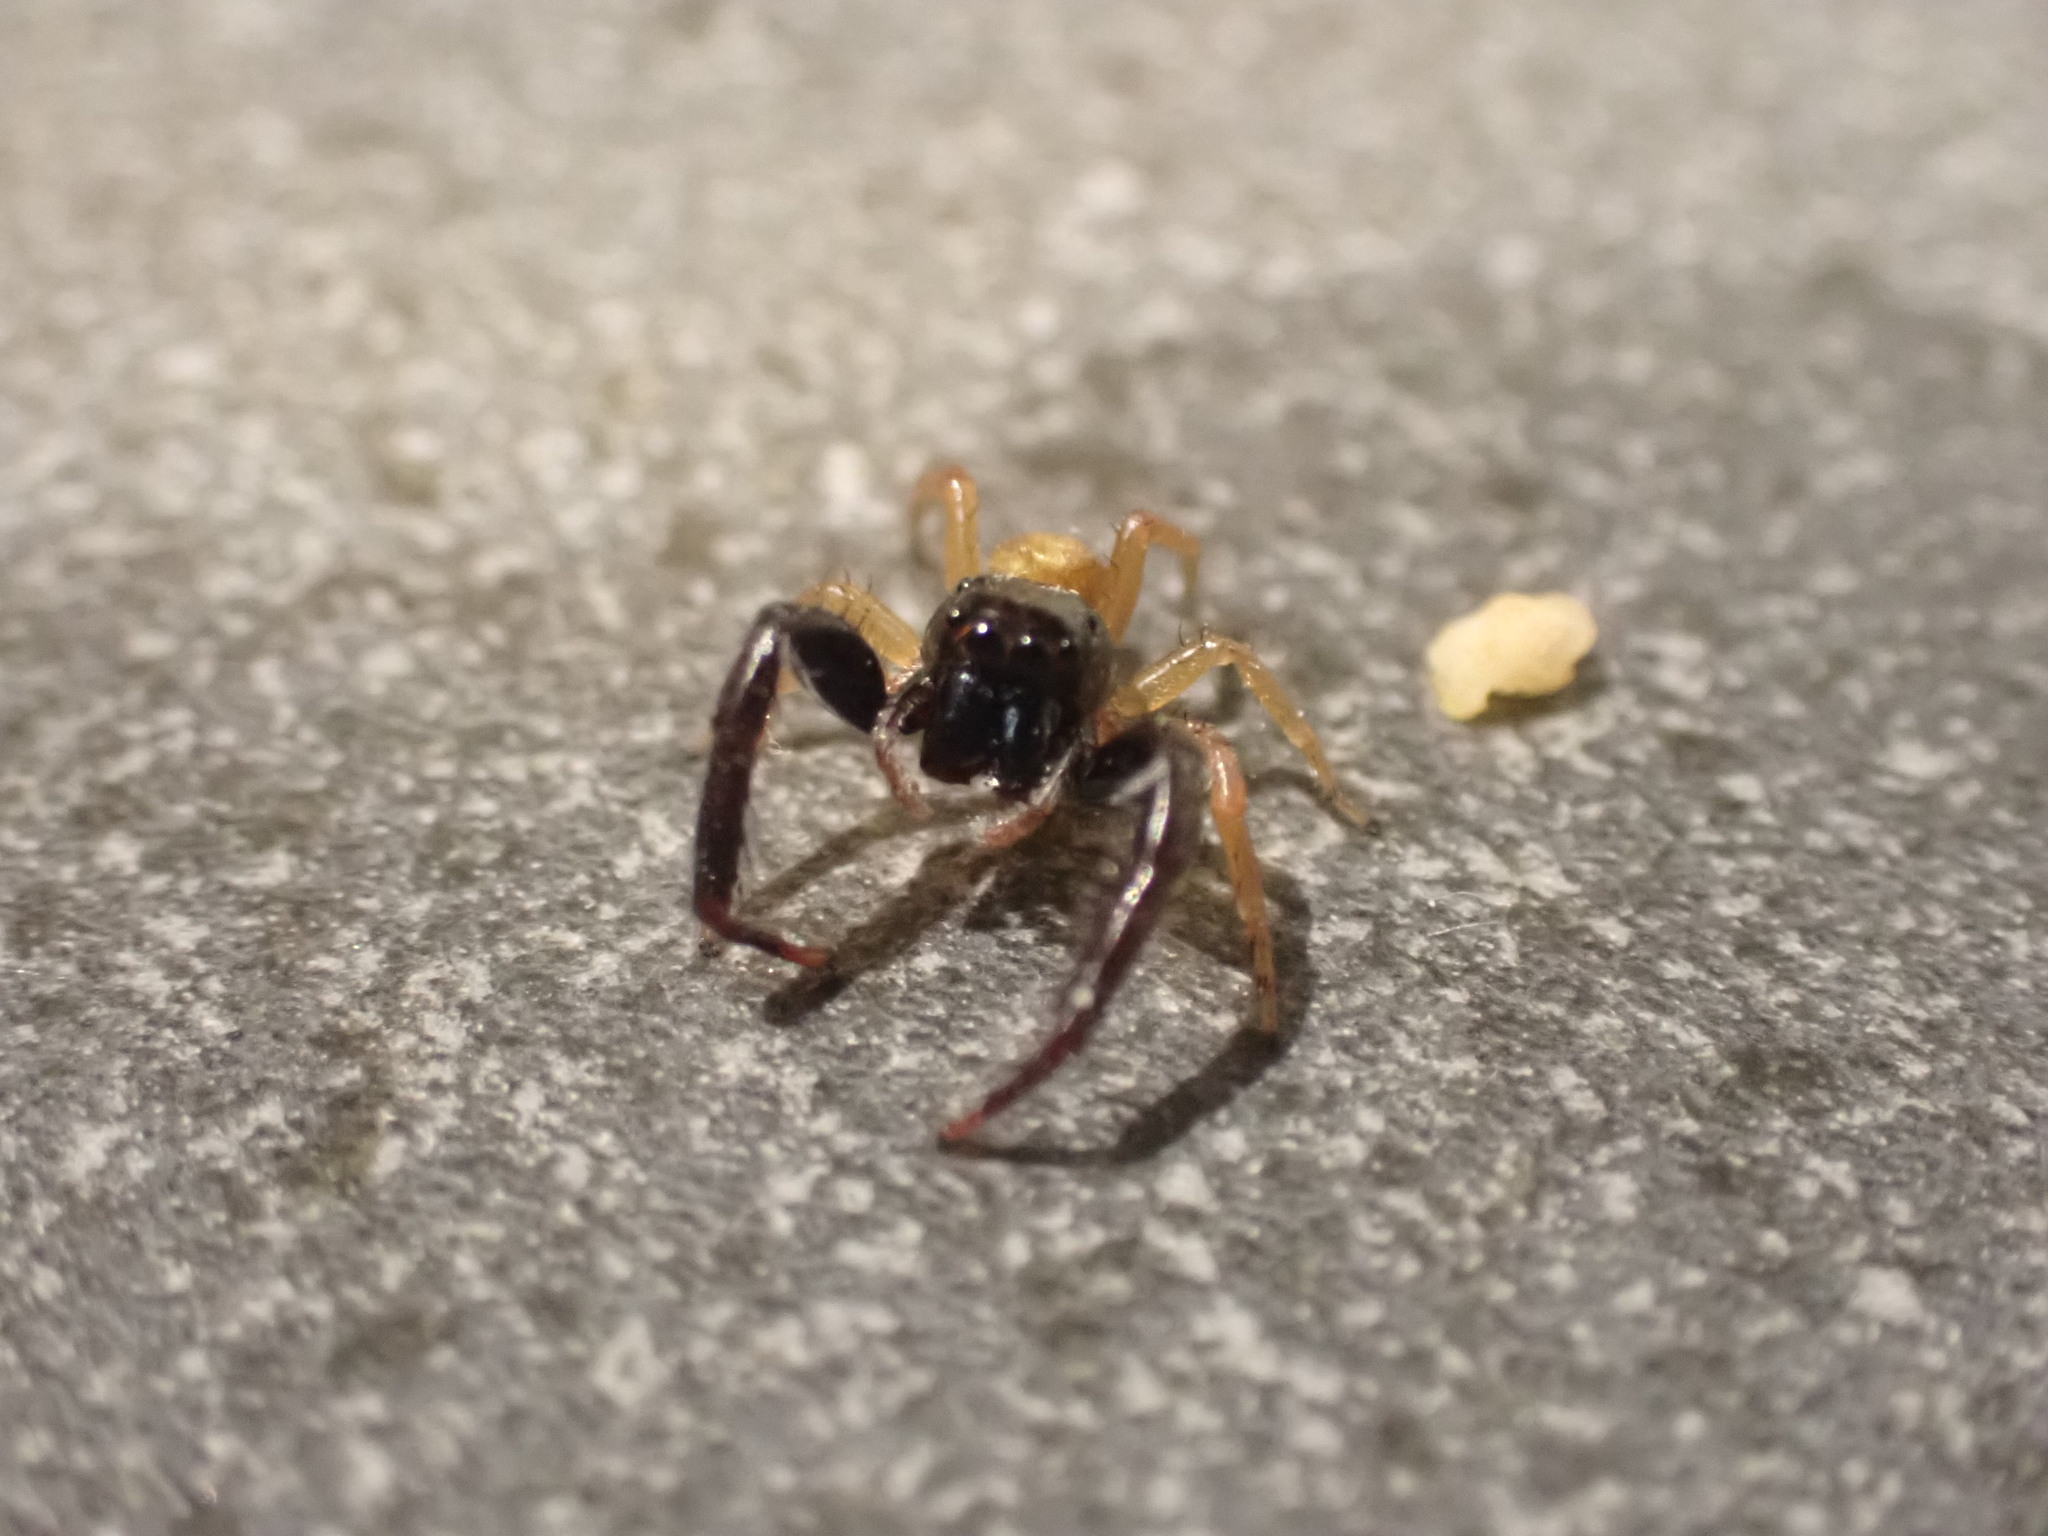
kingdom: Animalia
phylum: Arthropoda
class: Arachnida
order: Araneae
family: Salticidae
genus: Trite
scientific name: Trite planiceps
